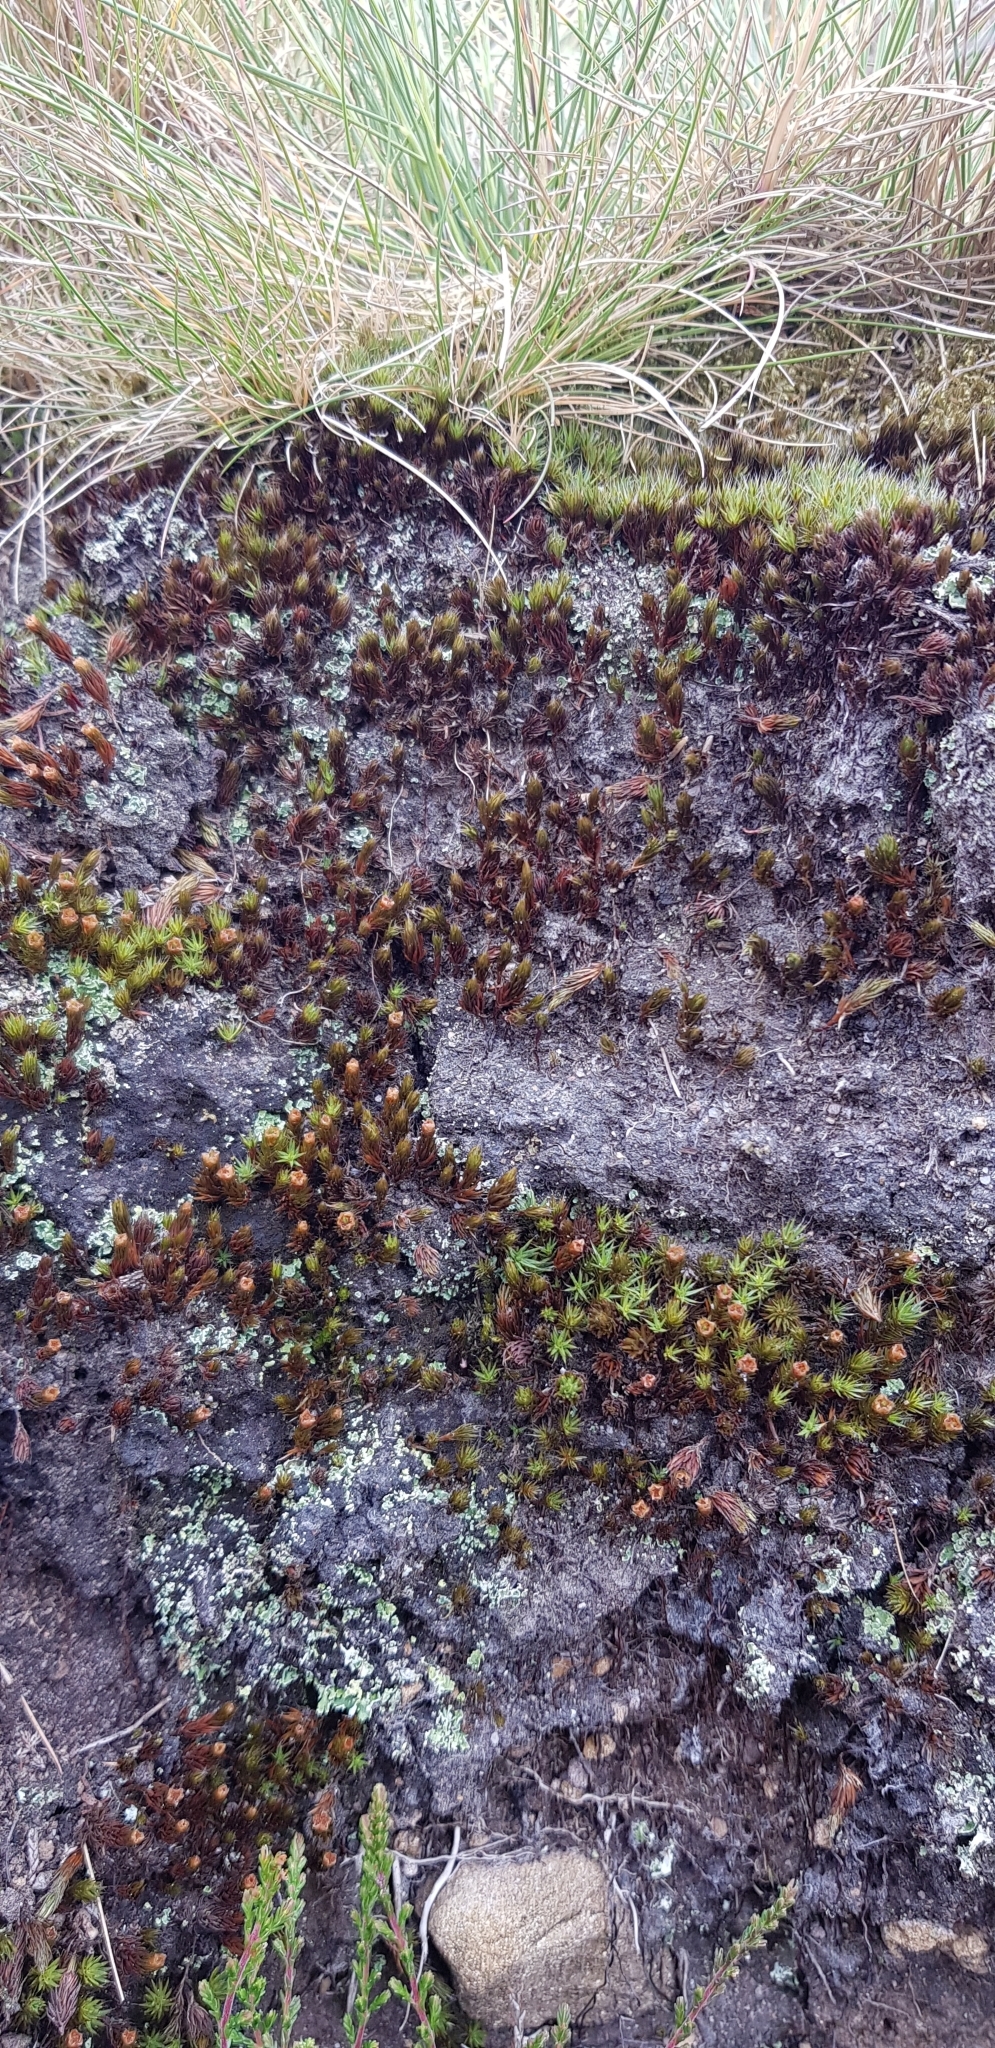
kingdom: Plantae
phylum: Bryophyta
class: Polytrichopsida
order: Polytrichales
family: Polytrichaceae
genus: Polytrichum
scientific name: Polytrichum piliferum
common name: Bristly haircap
